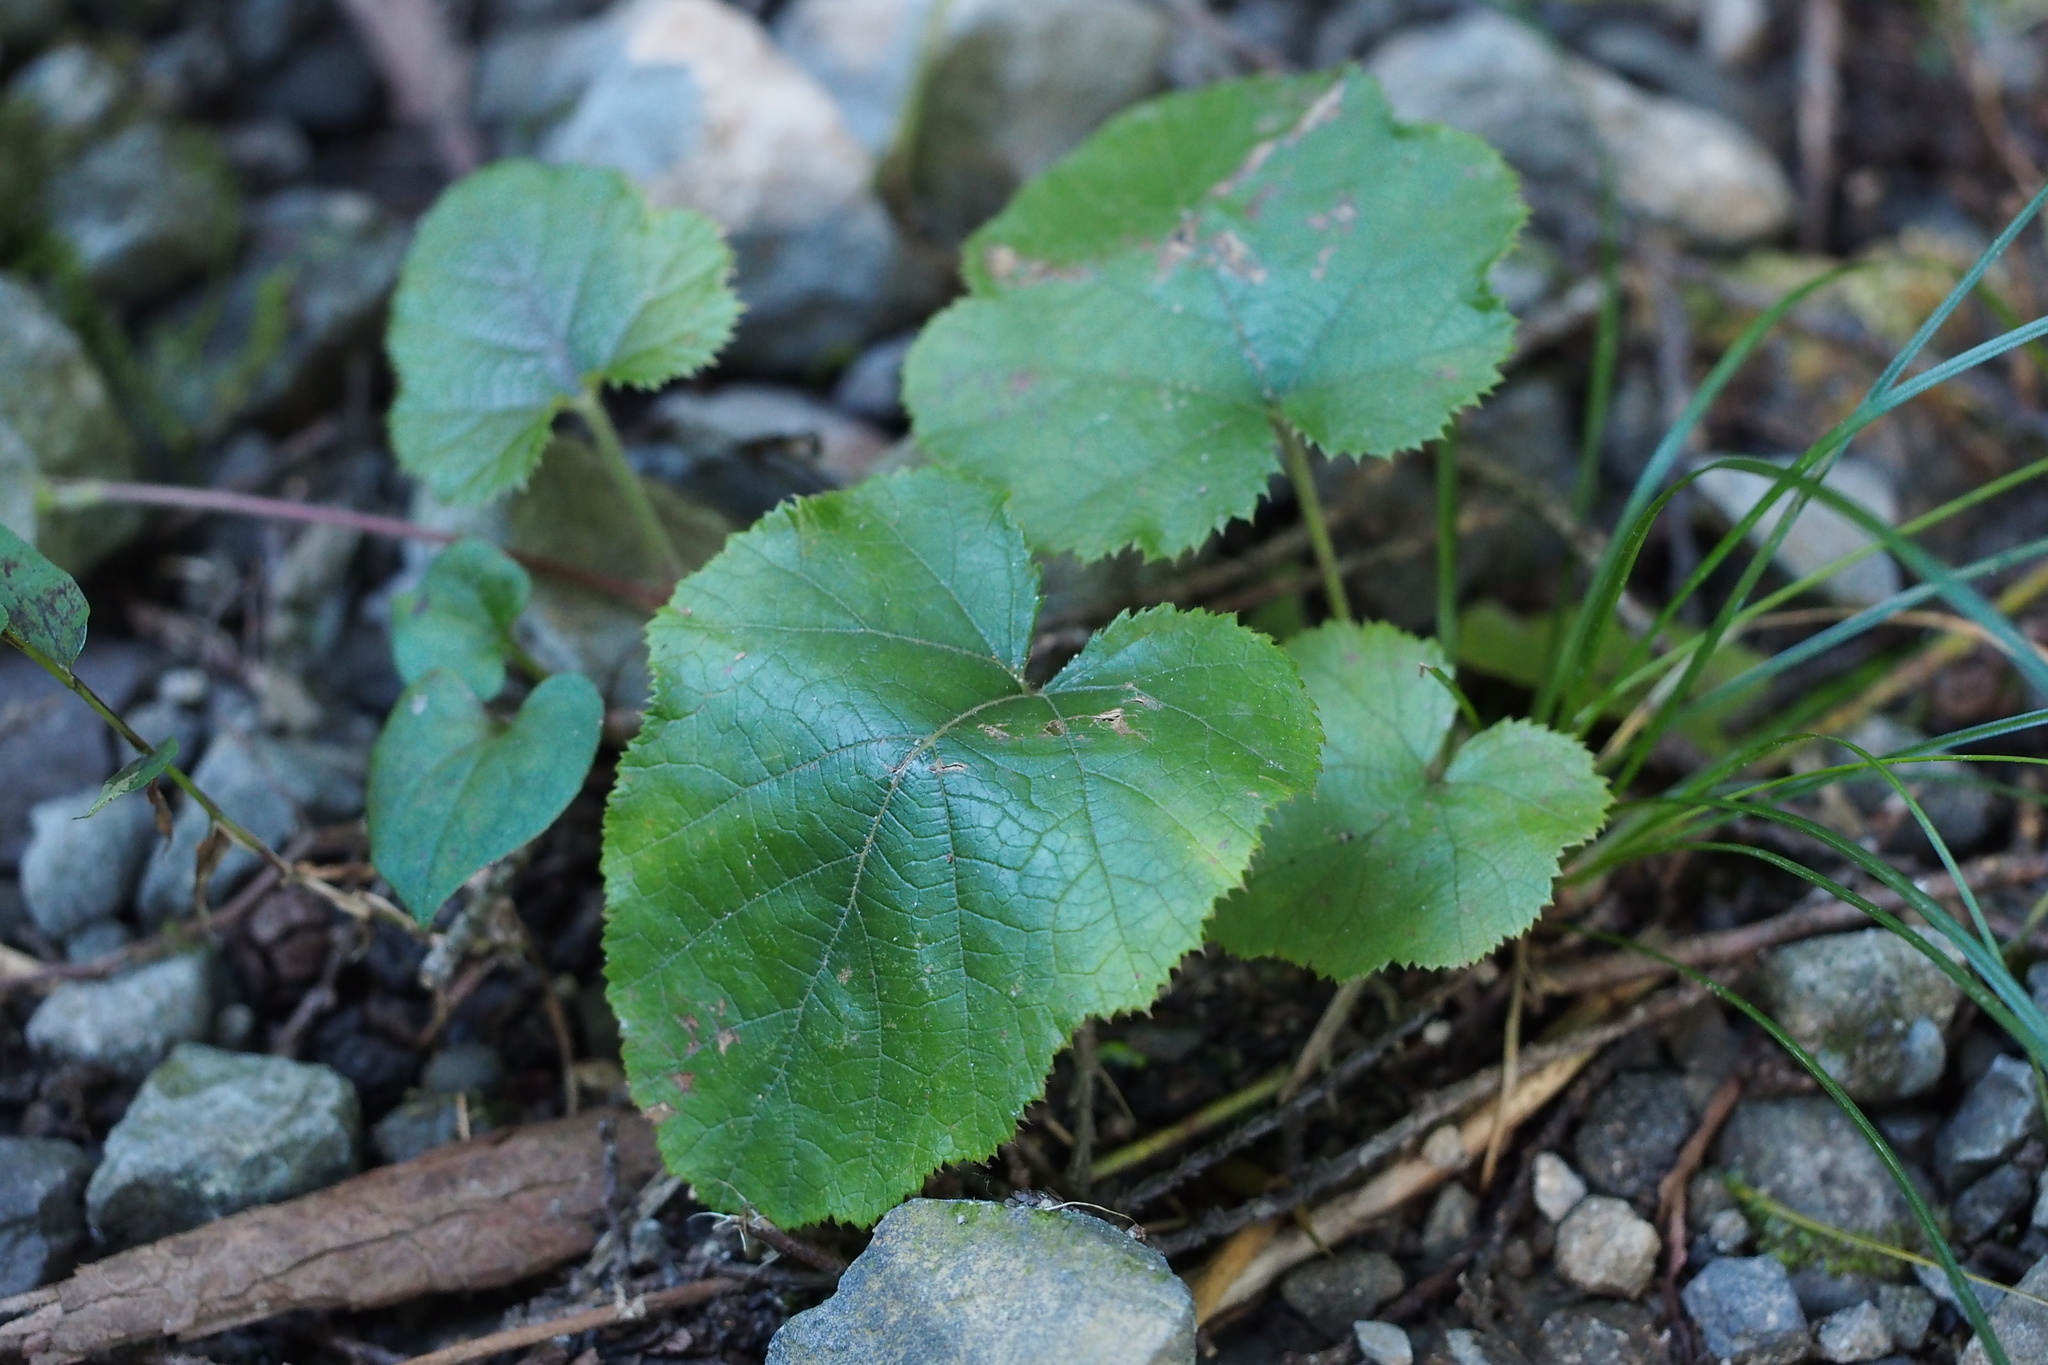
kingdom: Plantae
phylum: Tracheophyta
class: Magnoliopsida
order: Rosales
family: Rosaceae
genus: Rubus
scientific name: Rubus buergeri
